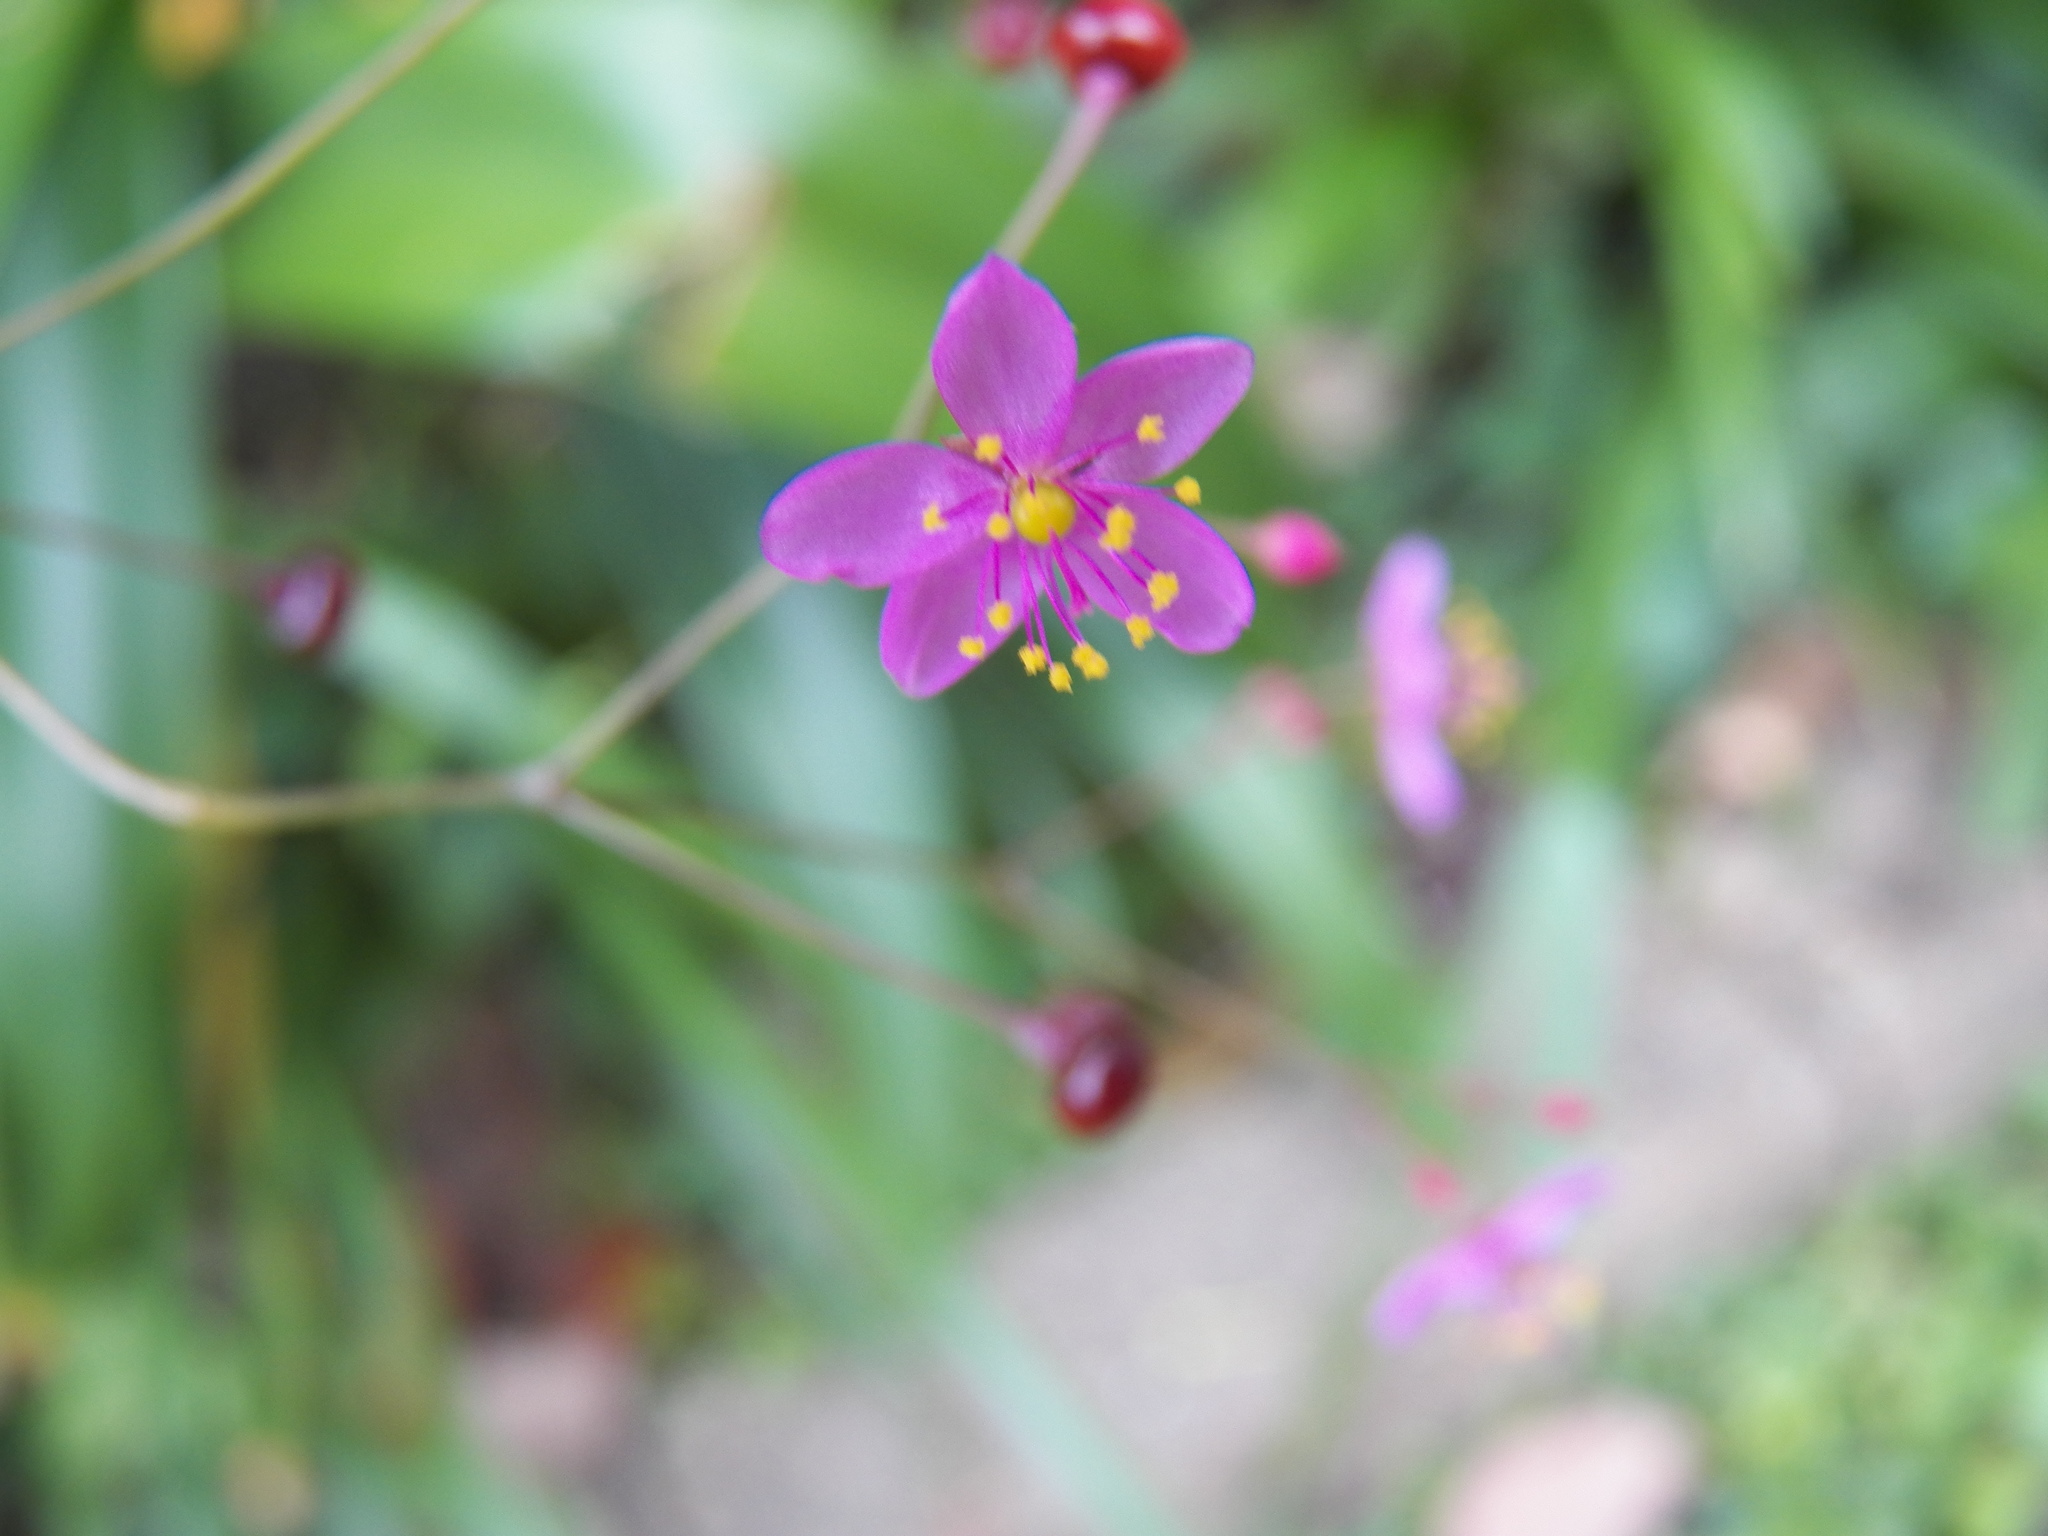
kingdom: Plantae
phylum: Tracheophyta
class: Magnoliopsida
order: Caryophyllales
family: Talinaceae
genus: Talinum
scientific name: Talinum paniculatum
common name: Jewels of opar
